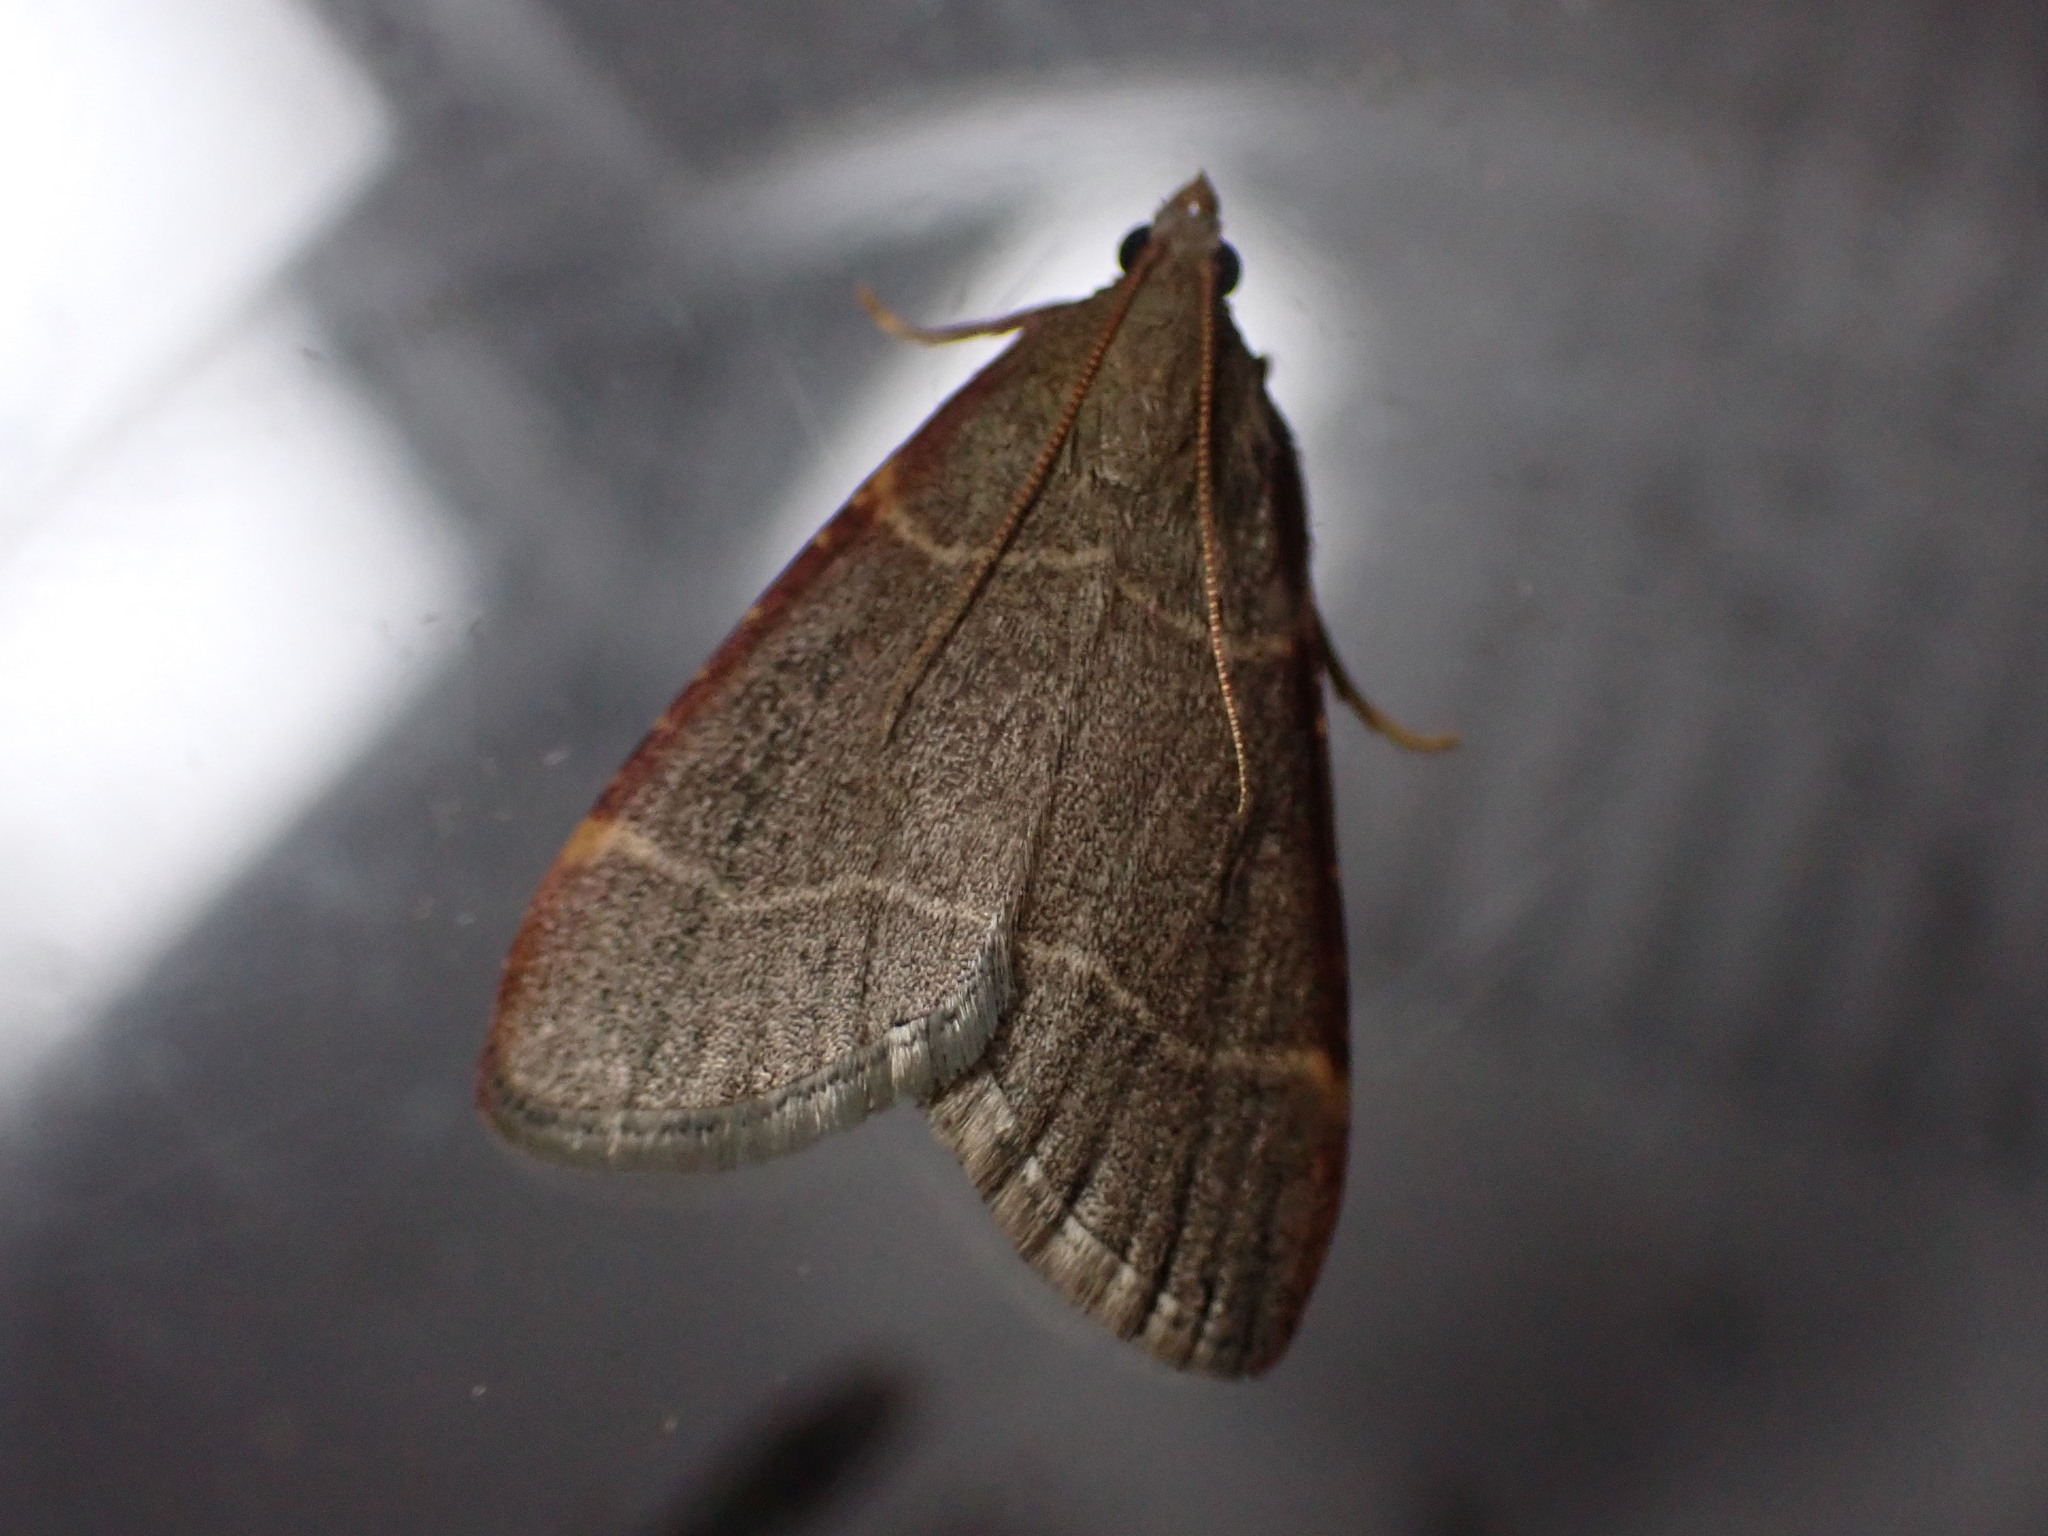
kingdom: Animalia
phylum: Arthropoda
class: Insecta
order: Lepidoptera
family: Pyralidae
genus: Hypsopygia
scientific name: Hypsopygia glaucinalis
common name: Double-striped tabby
